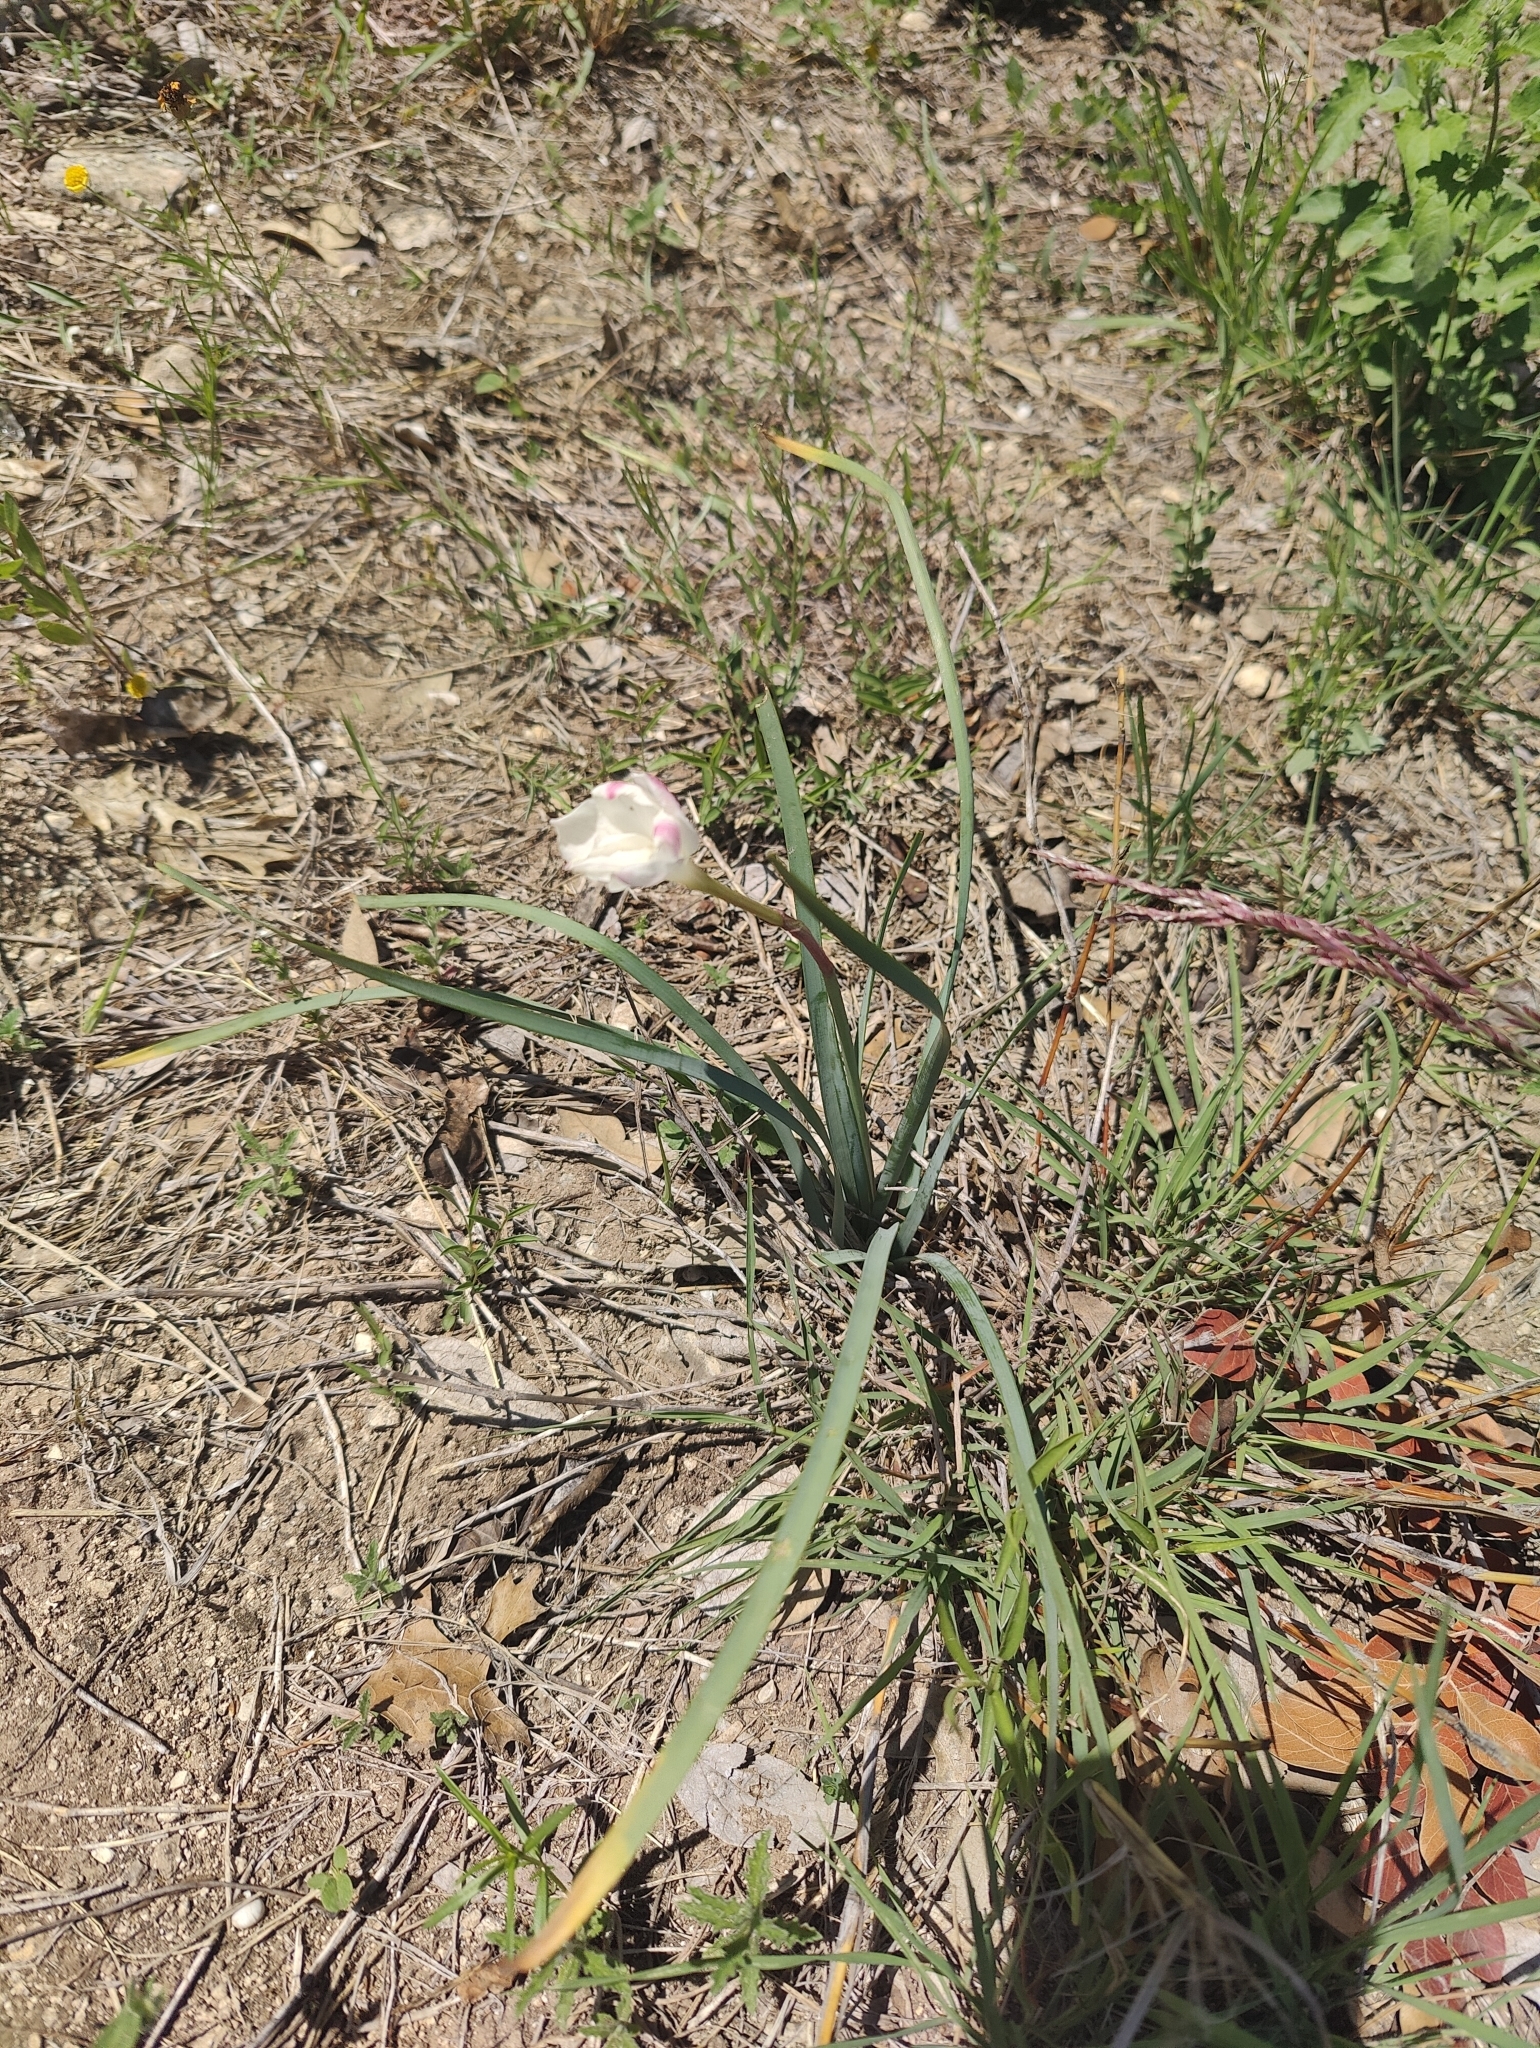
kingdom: Plantae
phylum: Tracheophyta
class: Liliopsida
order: Asparagales
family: Amaryllidaceae
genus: Zephyranthes
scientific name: Zephyranthes drummondii
